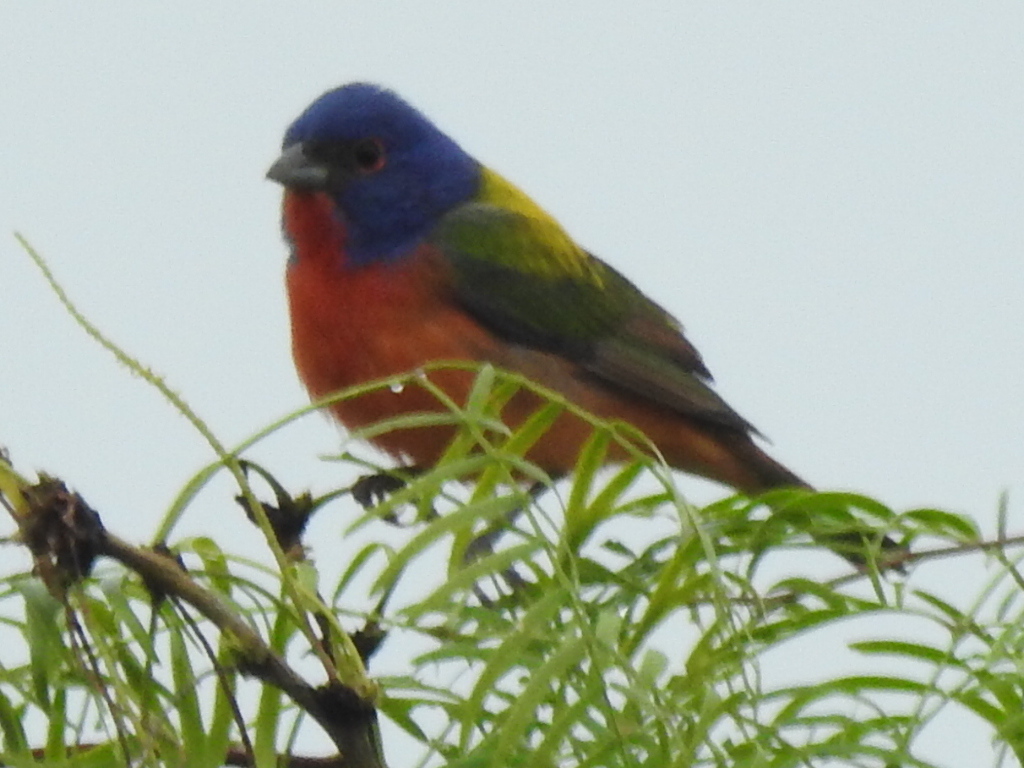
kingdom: Animalia
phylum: Chordata
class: Aves
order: Passeriformes
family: Cardinalidae
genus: Passerina
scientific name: Passerina ciris
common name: Painted bunting
